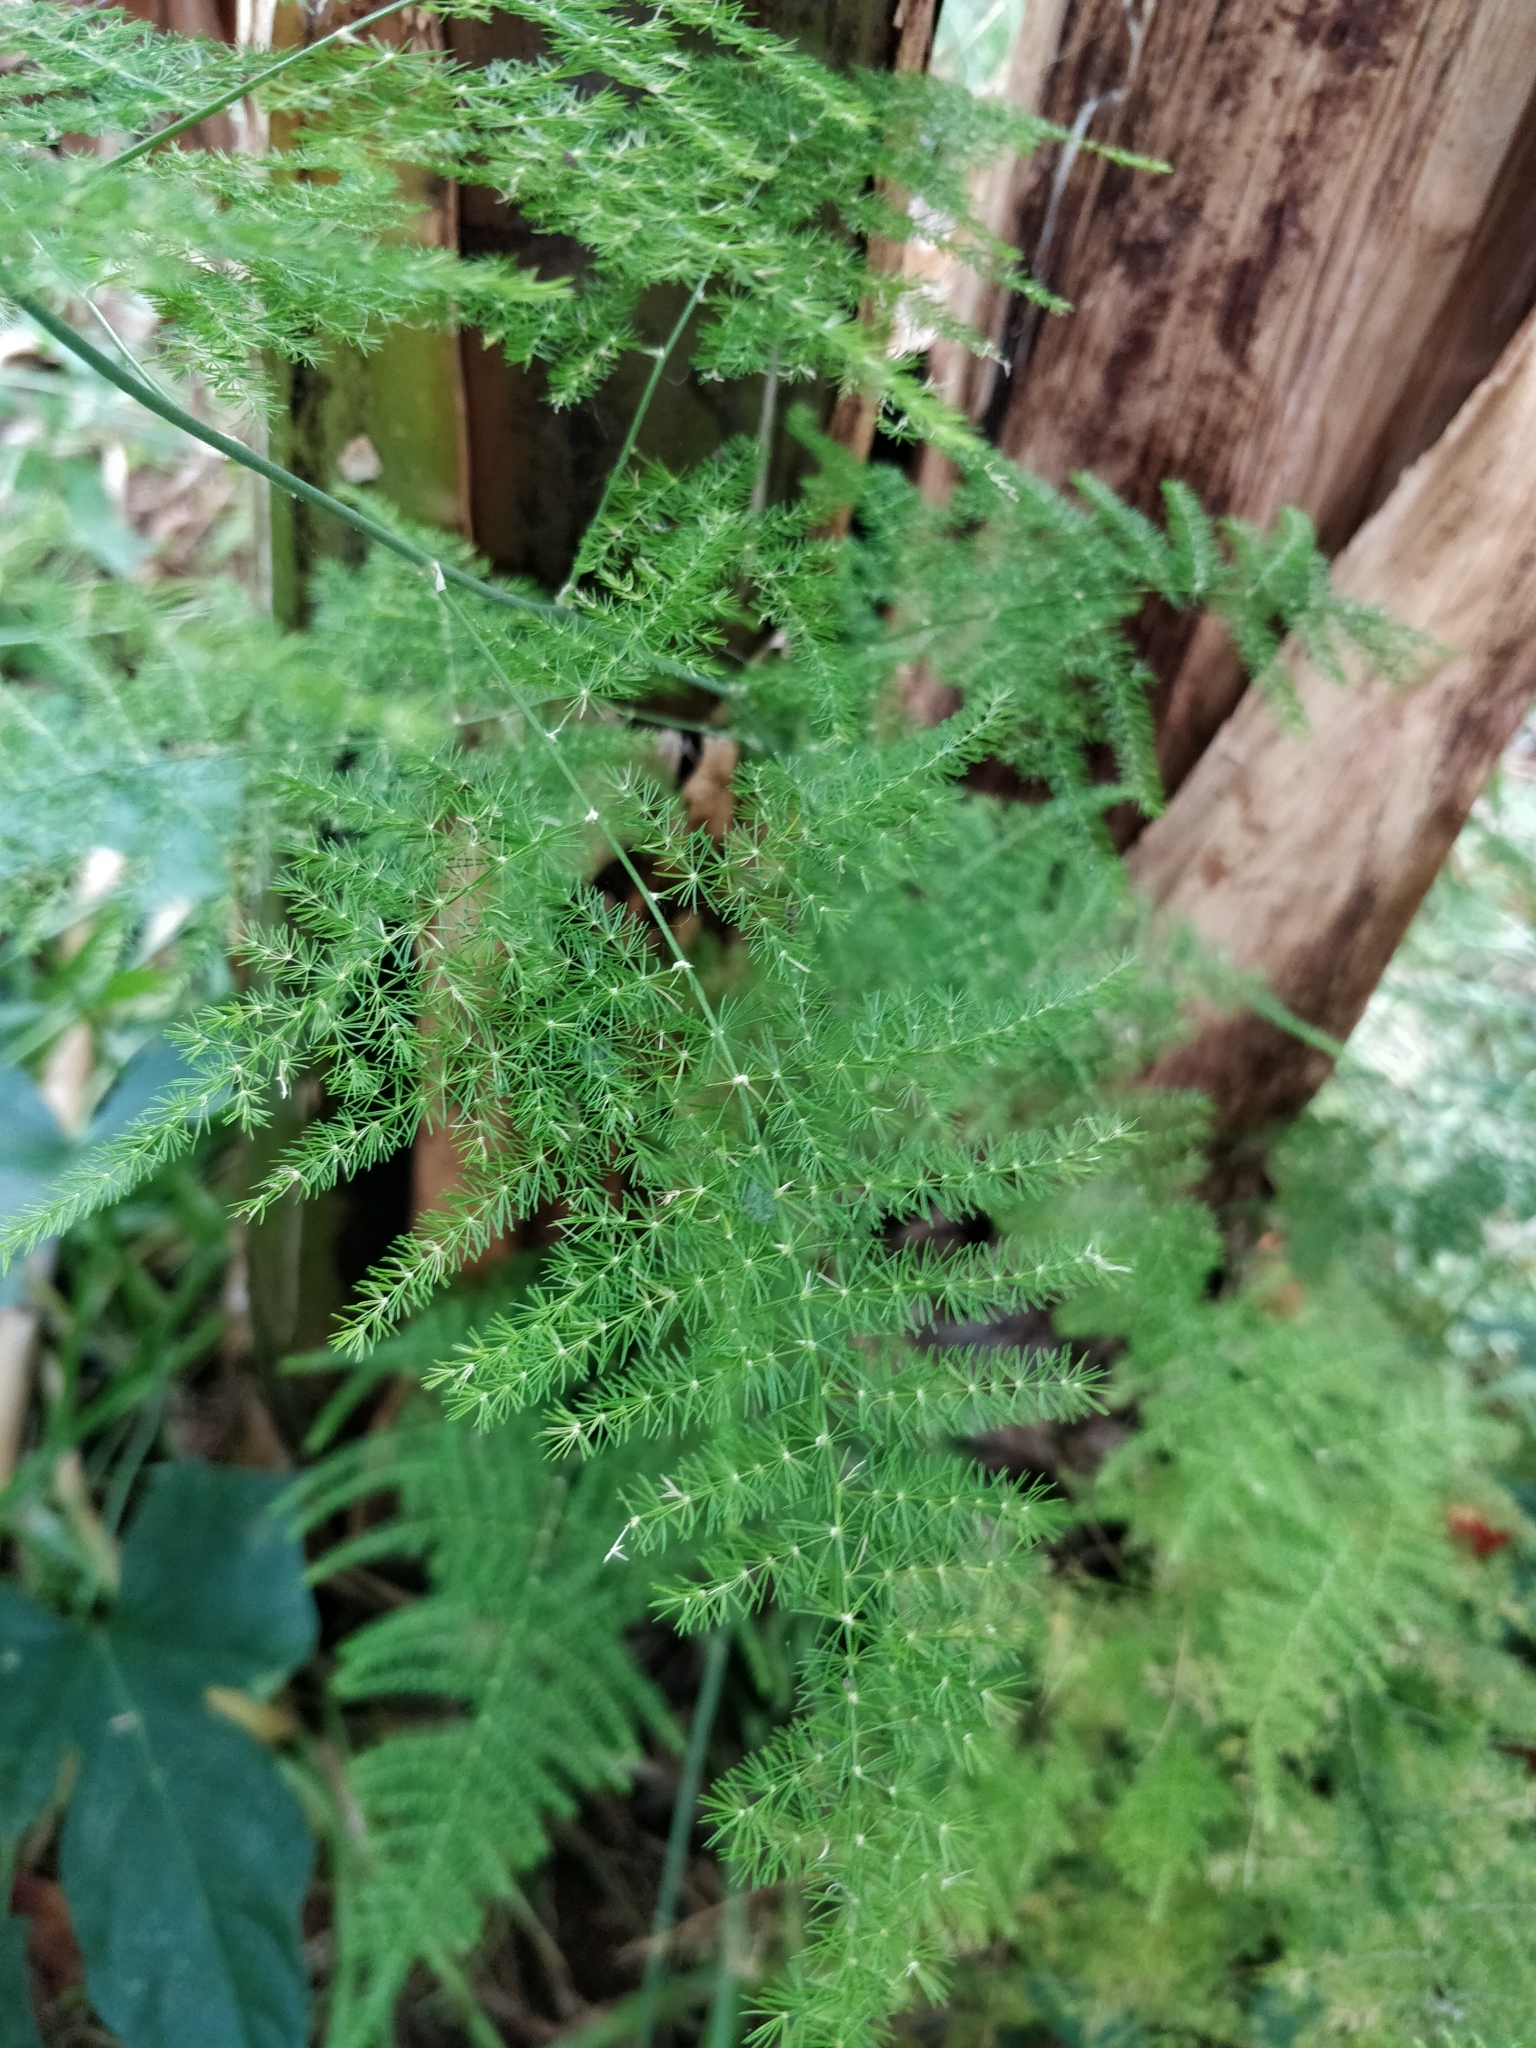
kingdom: Plantae
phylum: Tracheophyta
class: Liliopsida
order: Asparagales
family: Asparagaceae
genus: Asparagus
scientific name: Asparagus setaceus
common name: Common asparagus fern
